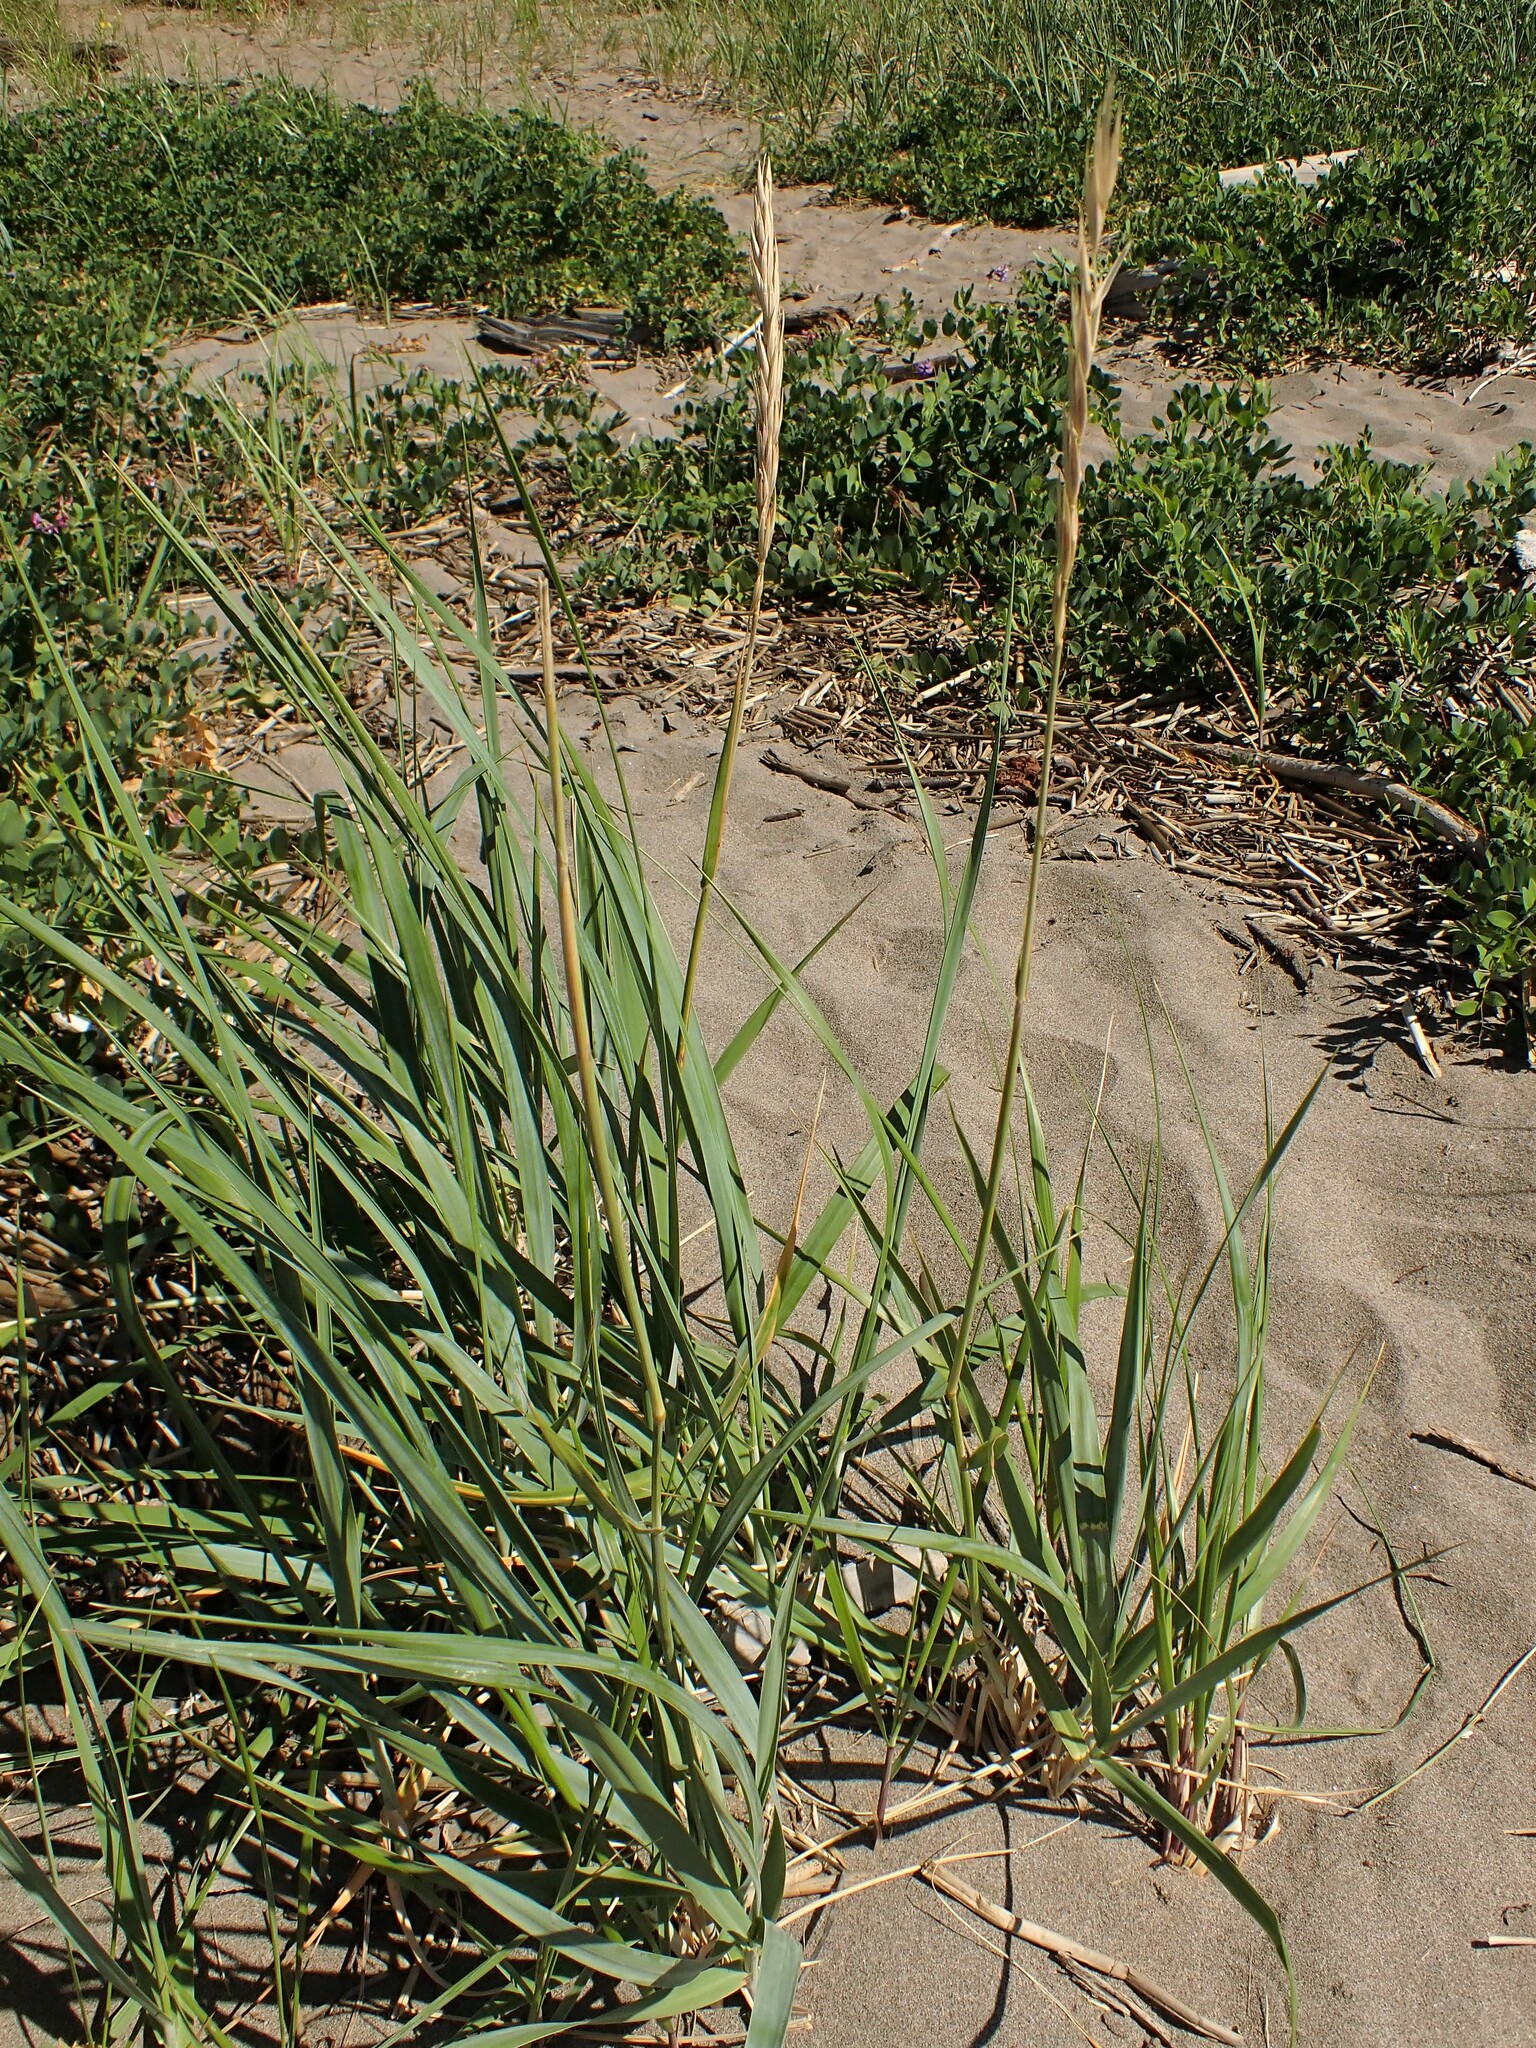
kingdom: Plantae
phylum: Tracheophyta
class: Liliopsida
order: Poales
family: Poaceae
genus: Leymus
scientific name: Leymus mollis
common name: American dune grass
